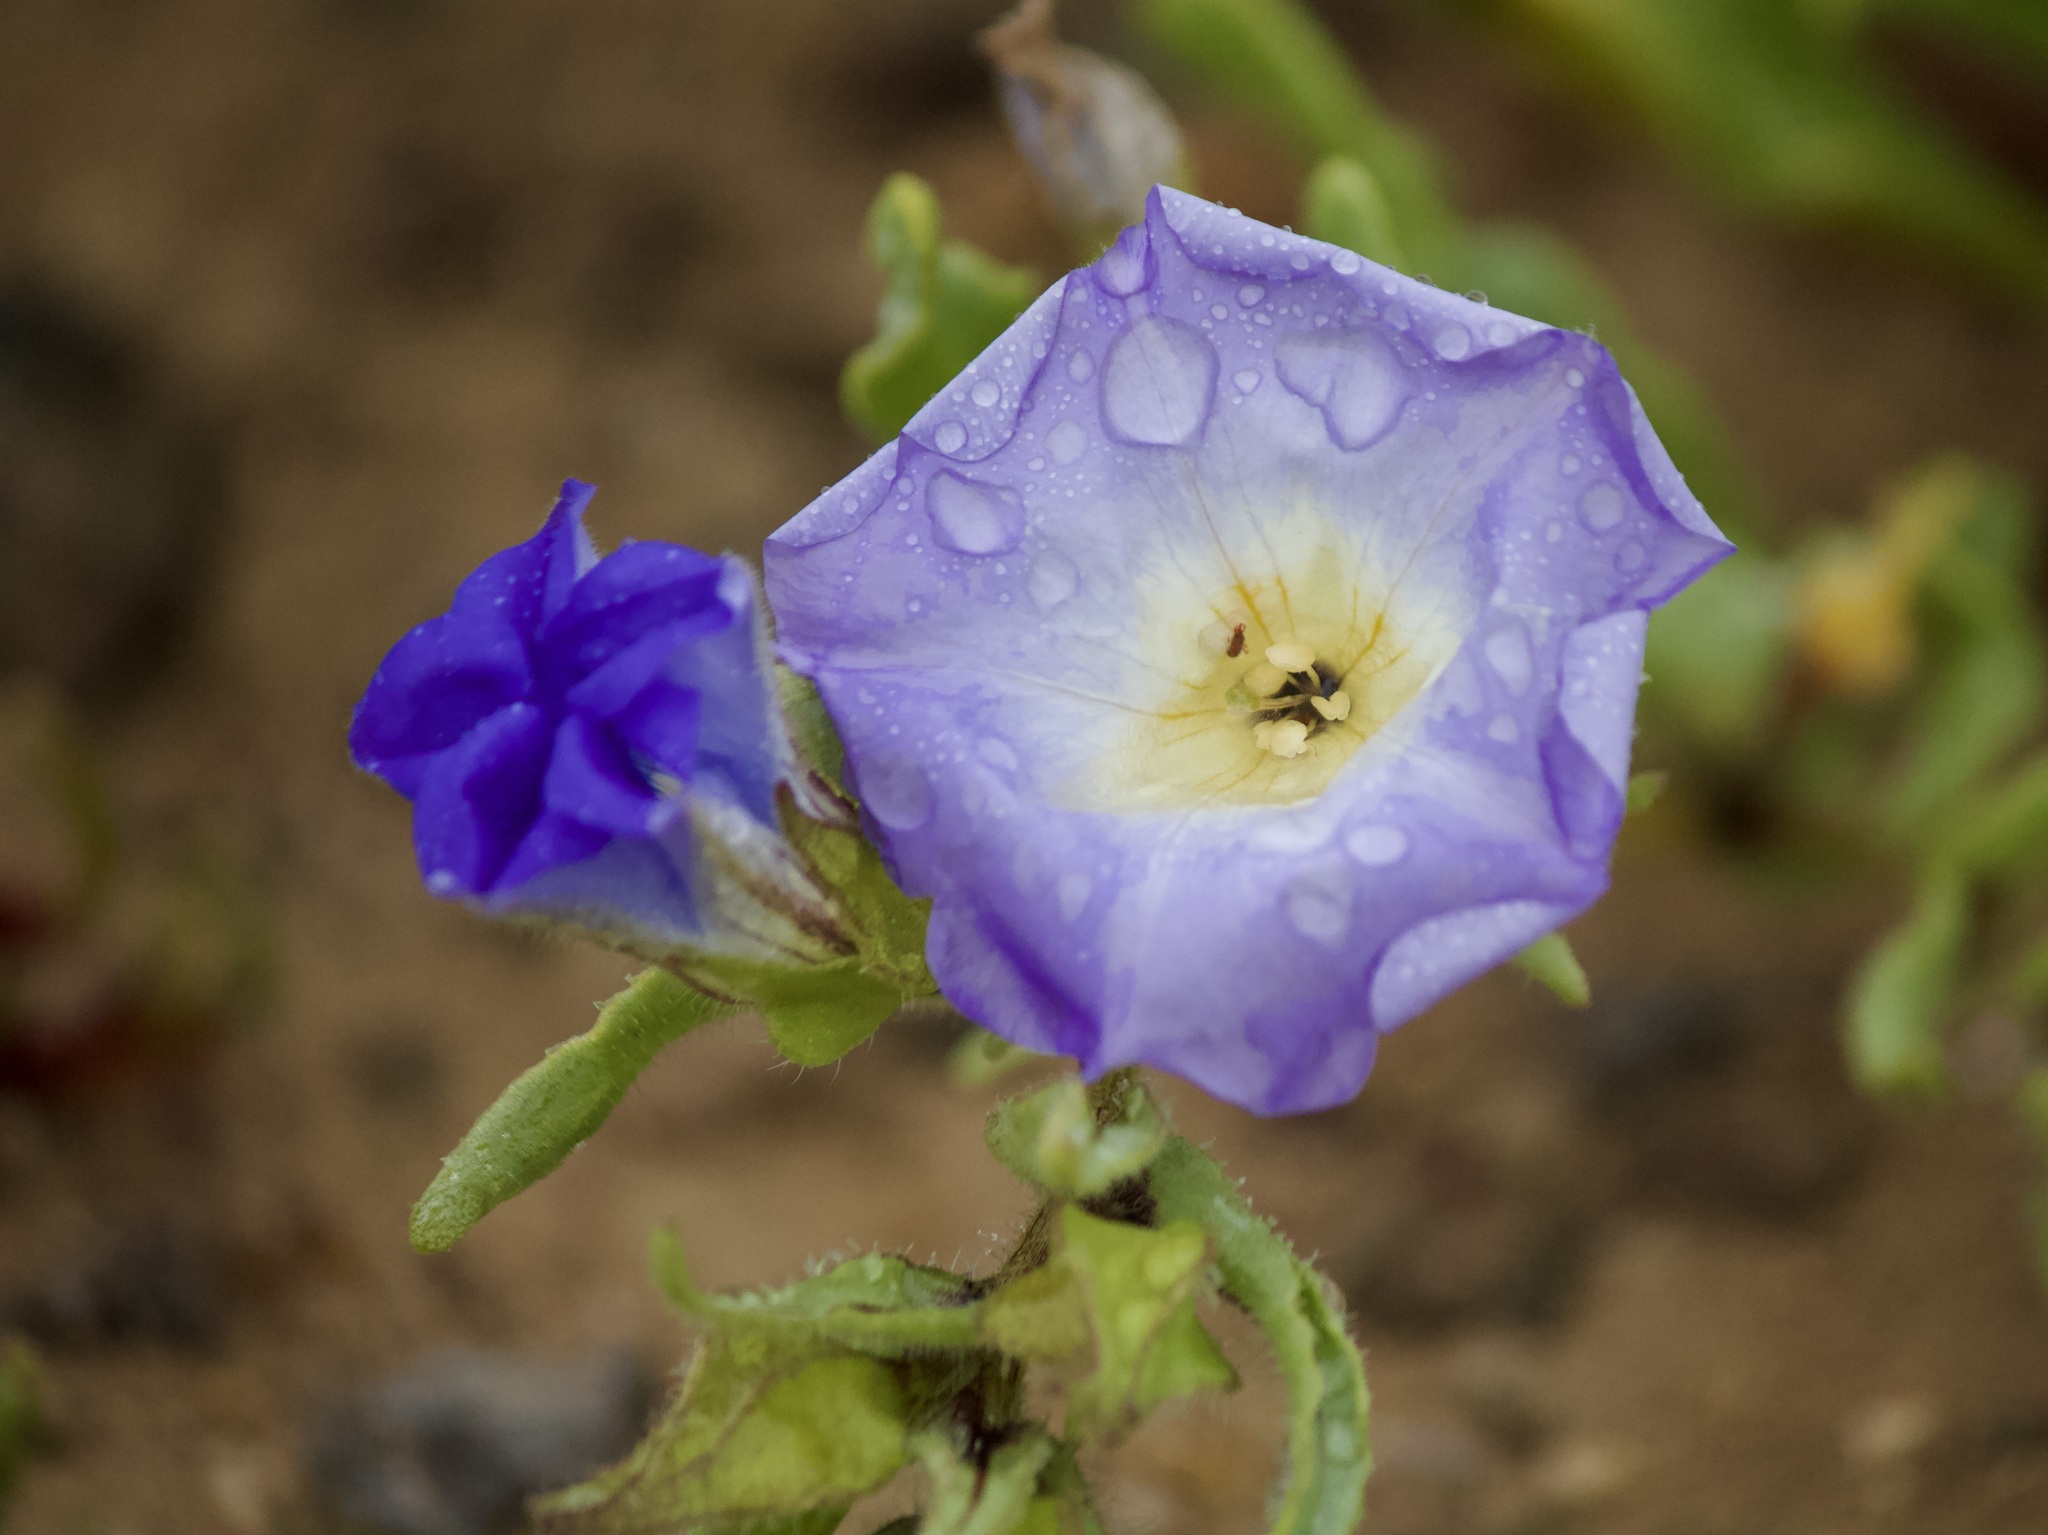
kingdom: Plantae
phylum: Tracheophyta
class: Magnoliopsida
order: Solanales
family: Solanaceae
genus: Nolana
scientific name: Nolana baccata
